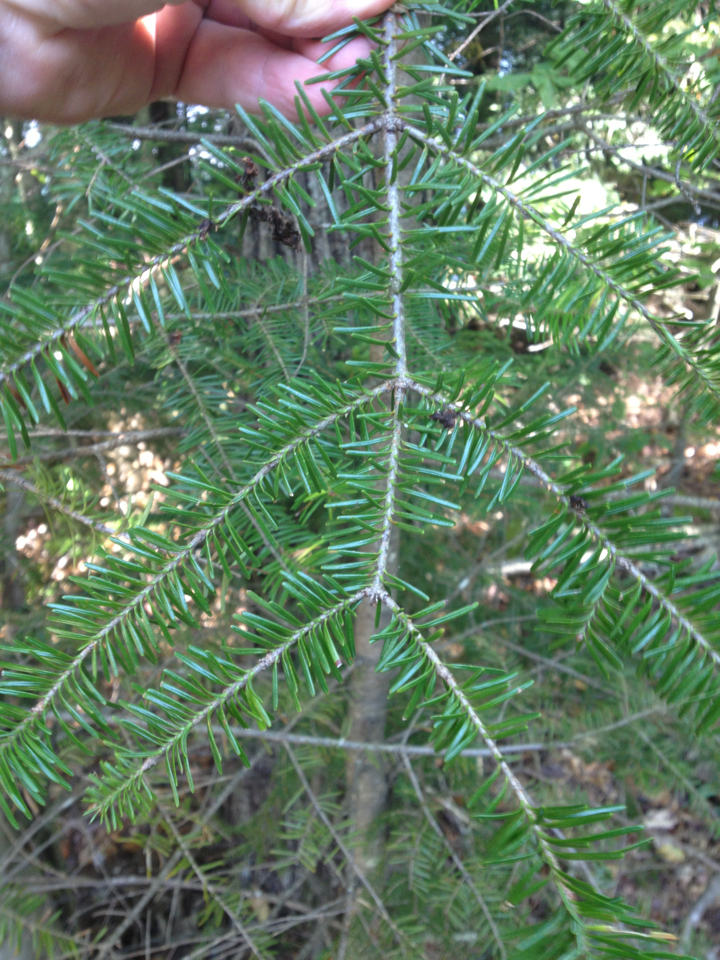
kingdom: Plantae
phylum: Tracheophyta
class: Pinopsida
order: Pinales
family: Pinaceae
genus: Abies
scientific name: Abies balsamea
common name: Balsam fir
